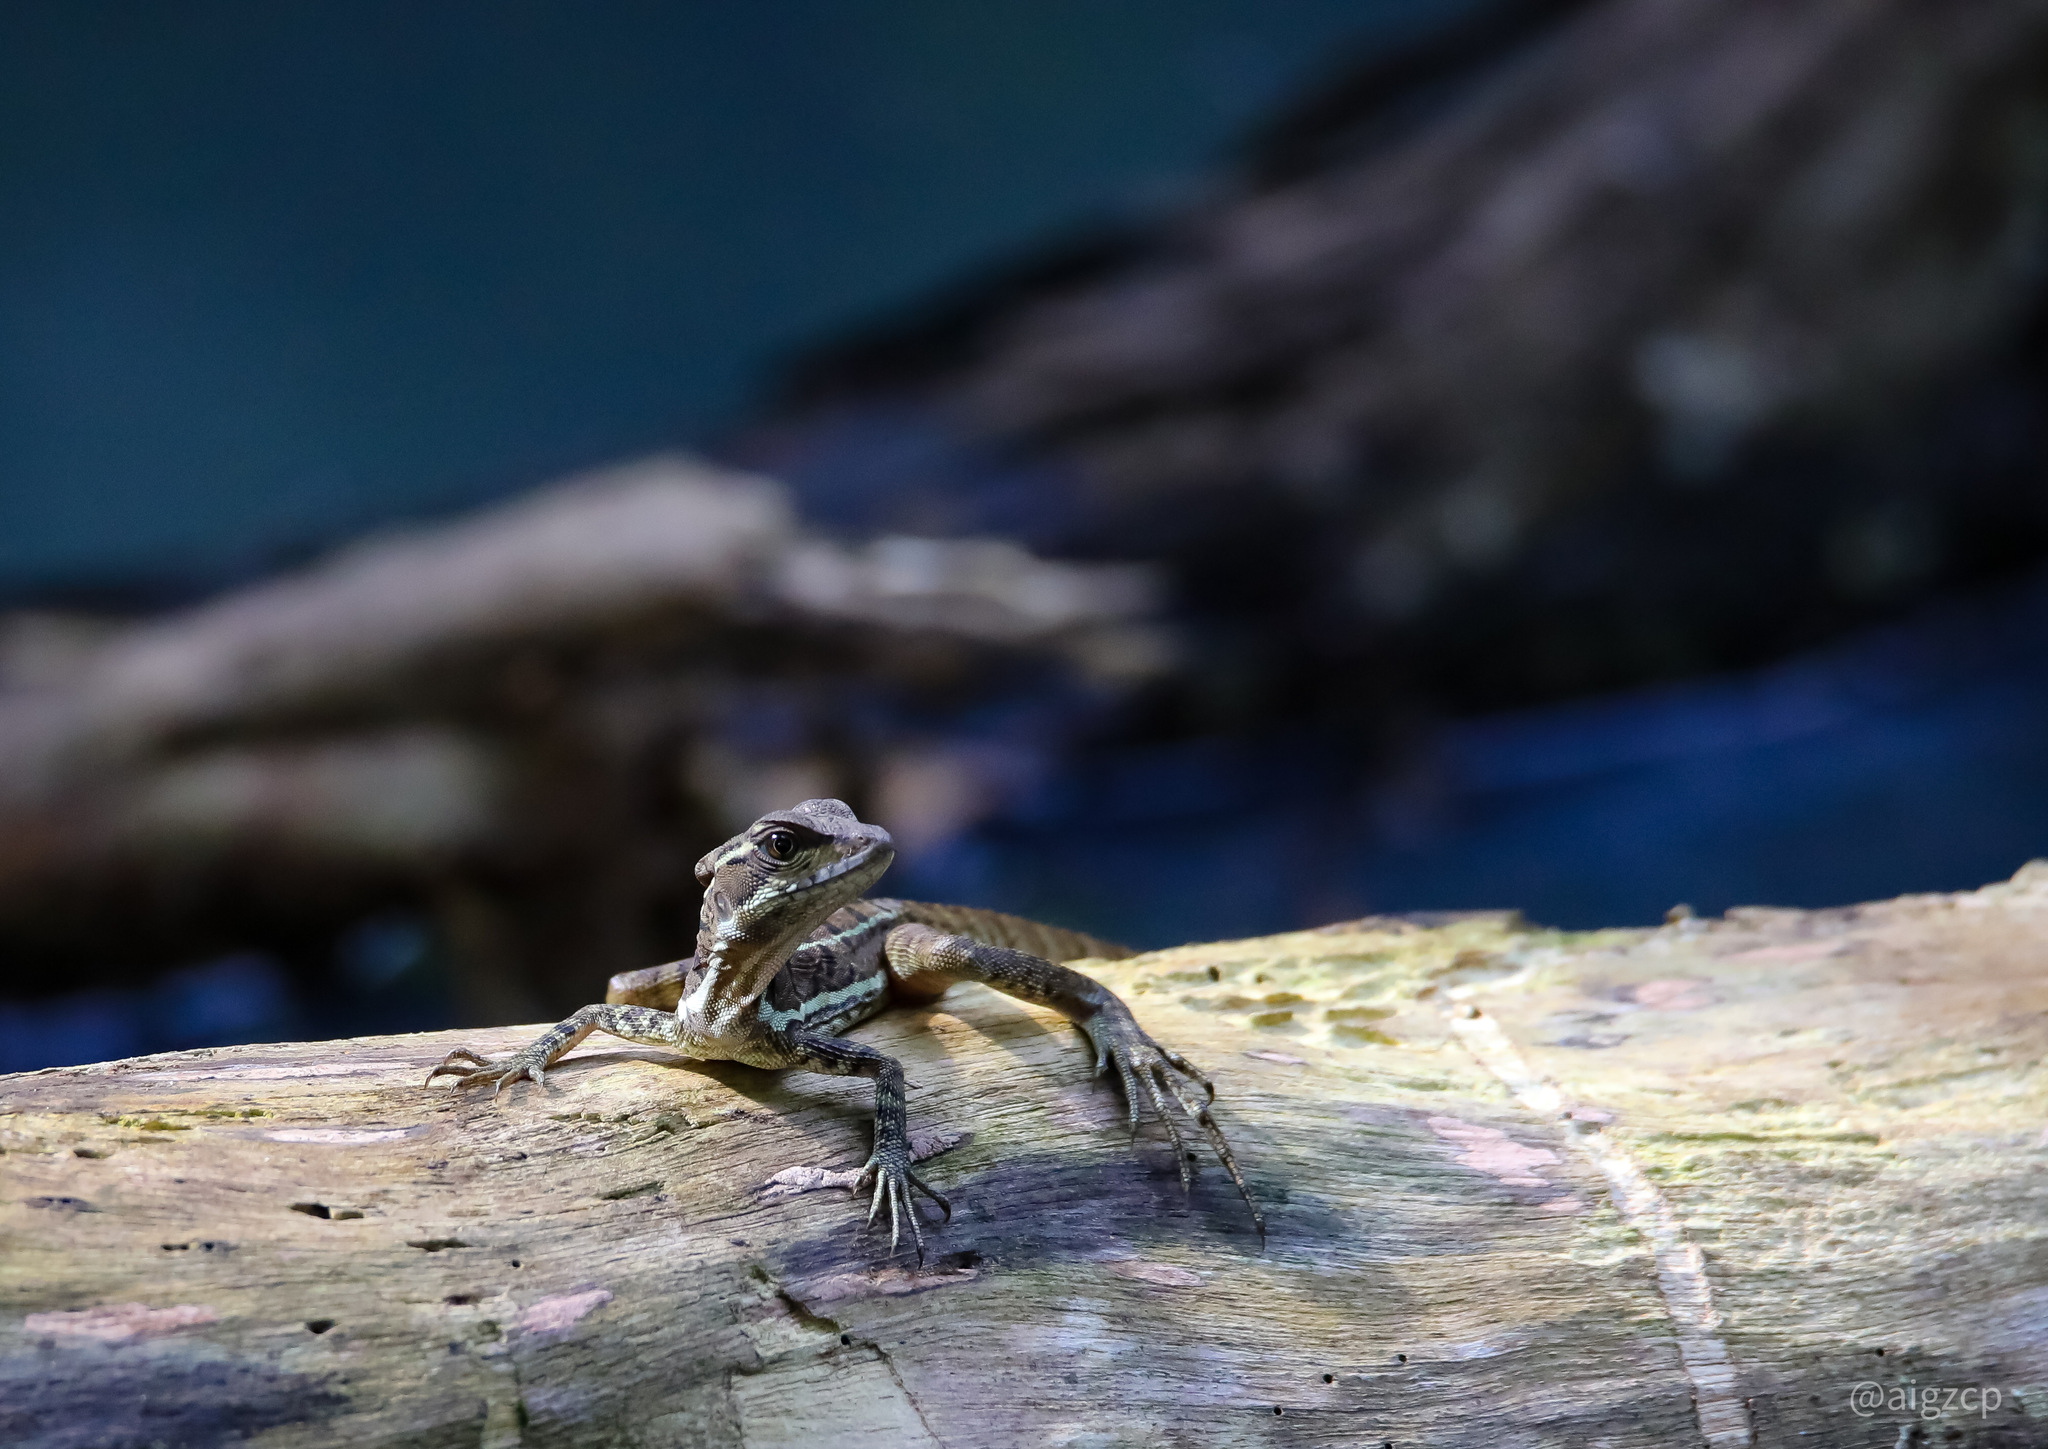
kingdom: Animalia
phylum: Chordata
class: Squamata
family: Corytophanidae
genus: Basiliscus
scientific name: Basiliscus basiliscus
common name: Common basilisk
